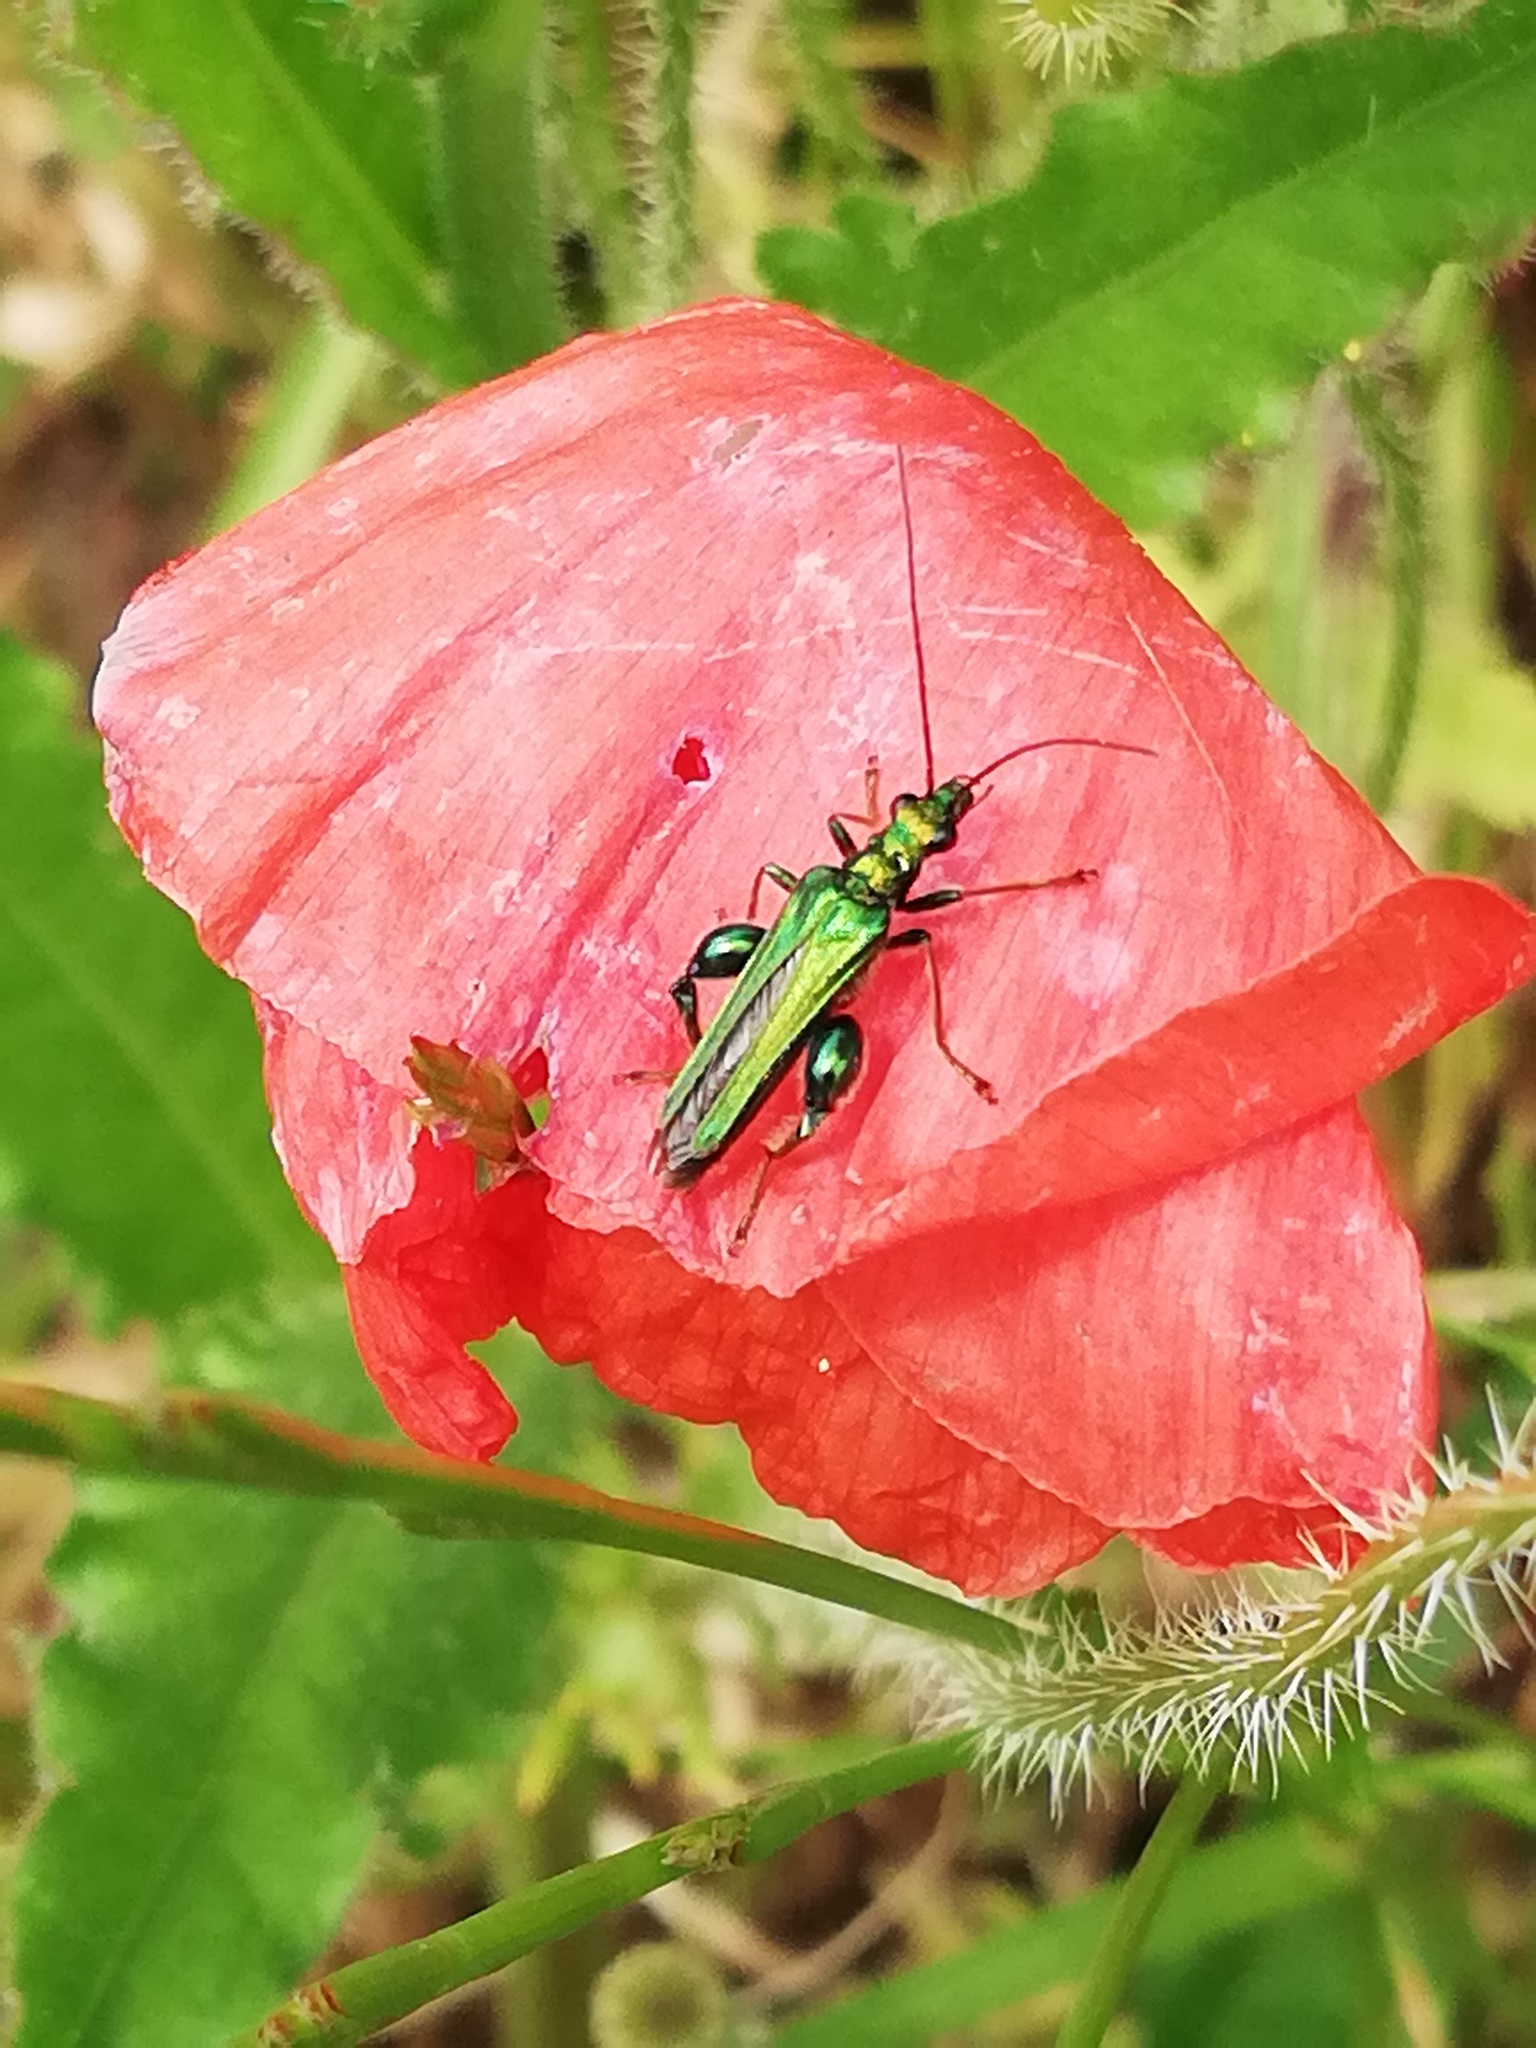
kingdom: Animalia
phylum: Arthropoda
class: Insecta
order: Coleoptera
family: Oedemeridae
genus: Oedemera
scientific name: Oedemera nobilis
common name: Swollen-thighed beetle
